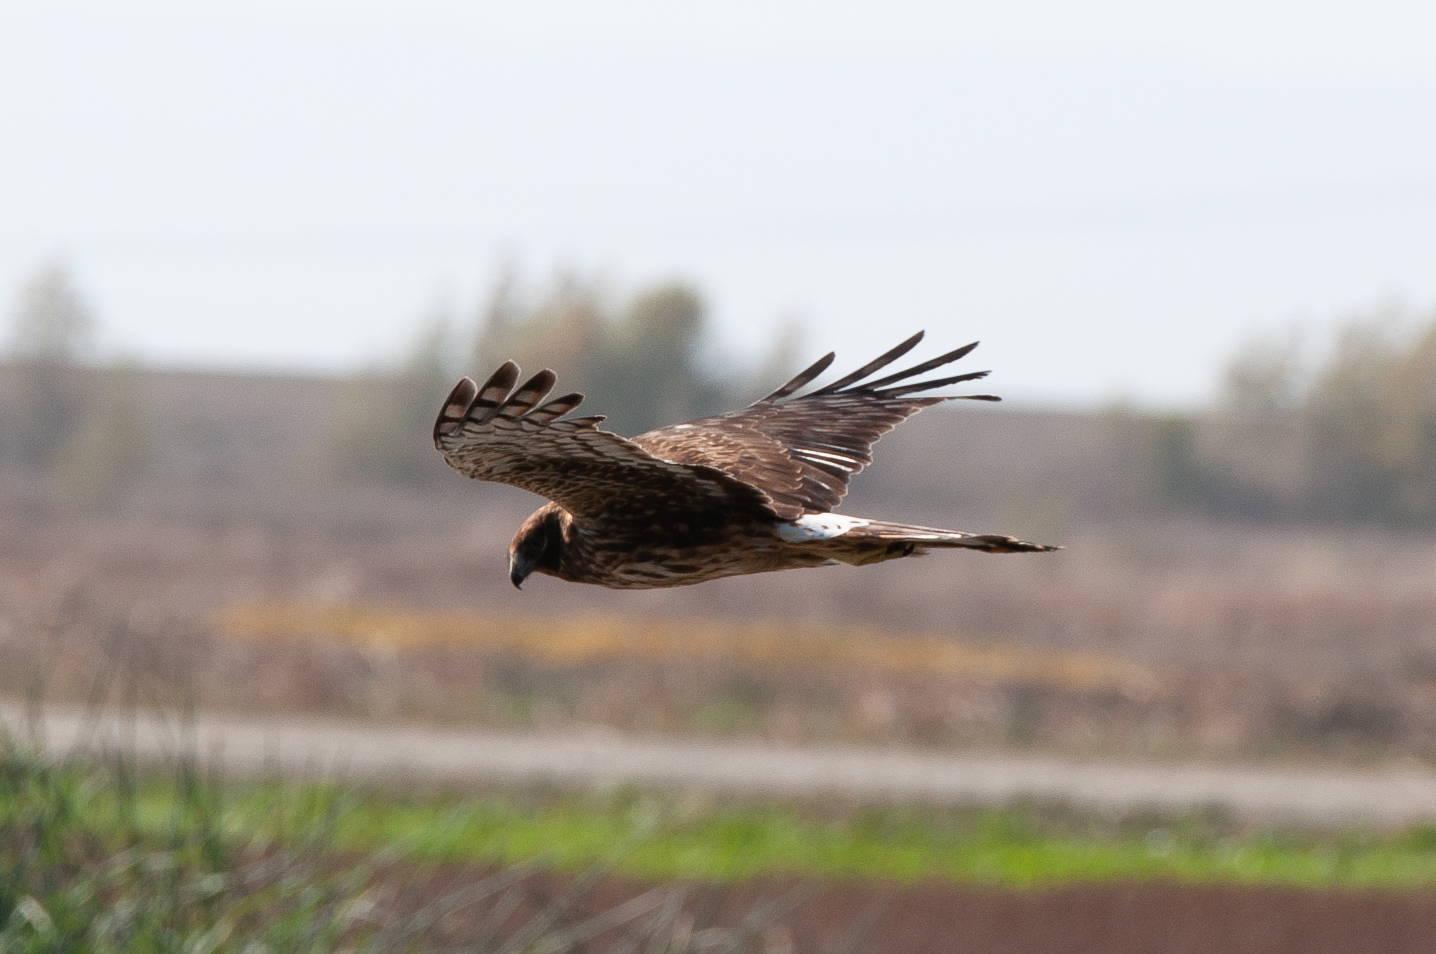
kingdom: Animalia
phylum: Chordata
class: Aves
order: Accipitriformes
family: Accipitridae
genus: Circus
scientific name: Circus cyaneus
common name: Hen harrier
